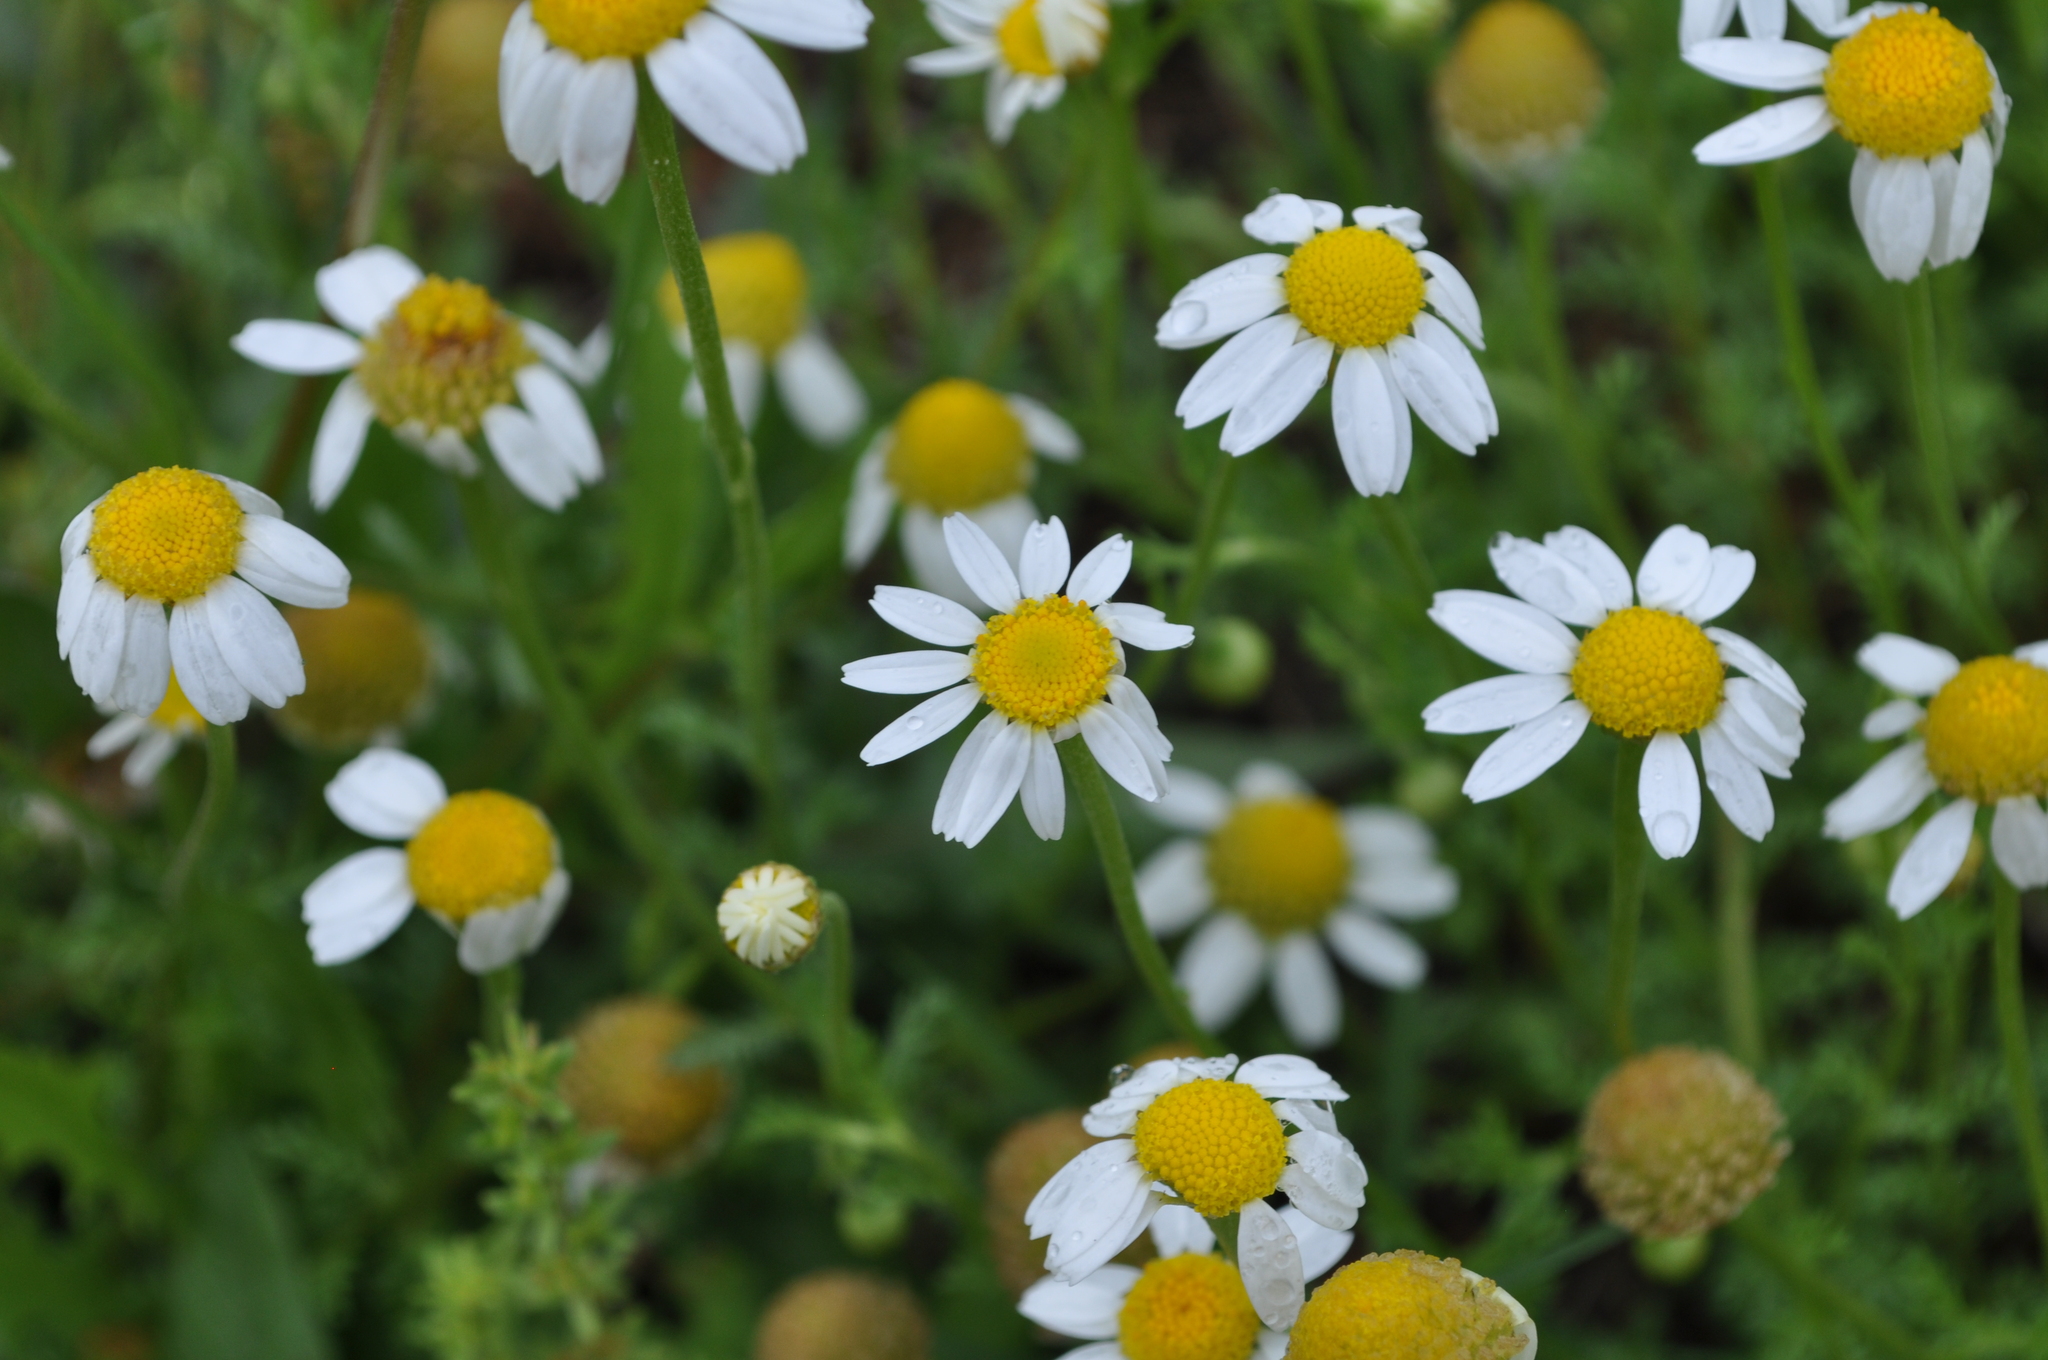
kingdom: Plantae
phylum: Tracheophyta
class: Magnoliopsida
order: Asterales
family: Asteraceae
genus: Anthemis
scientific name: Anthemis arvensis
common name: Corn chamomile
